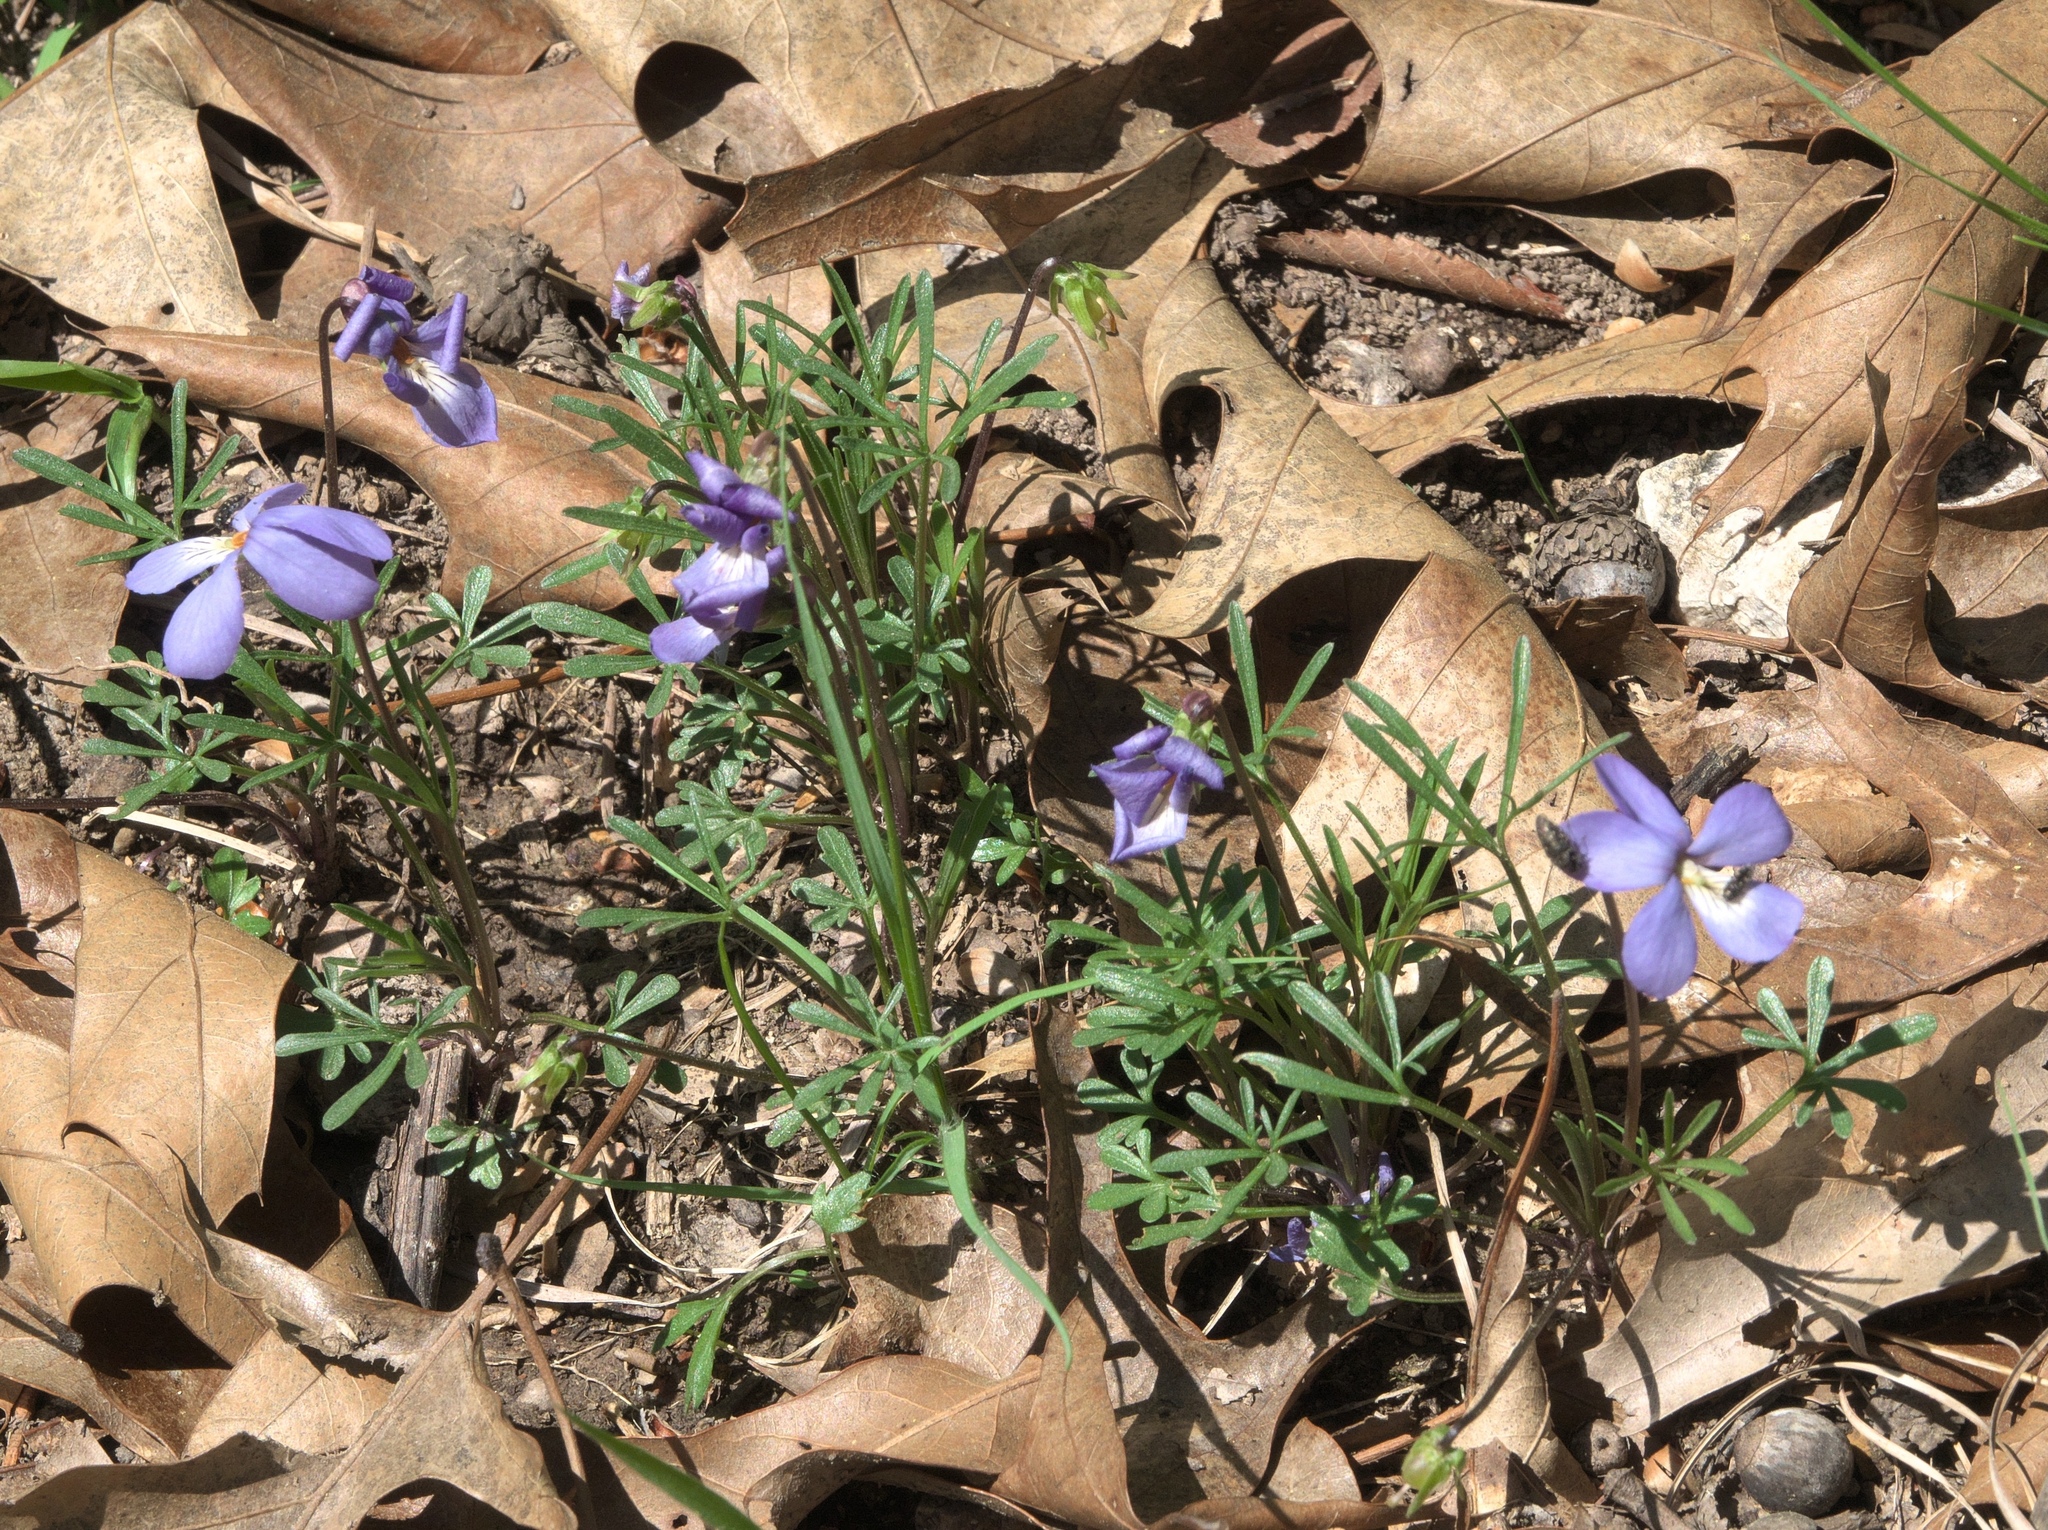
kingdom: Plantae
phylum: Tracheophyta
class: Magnoliopsida
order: Malpighiales
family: Violaceae
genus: Viola
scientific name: Viola pedata
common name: Pansy violet
